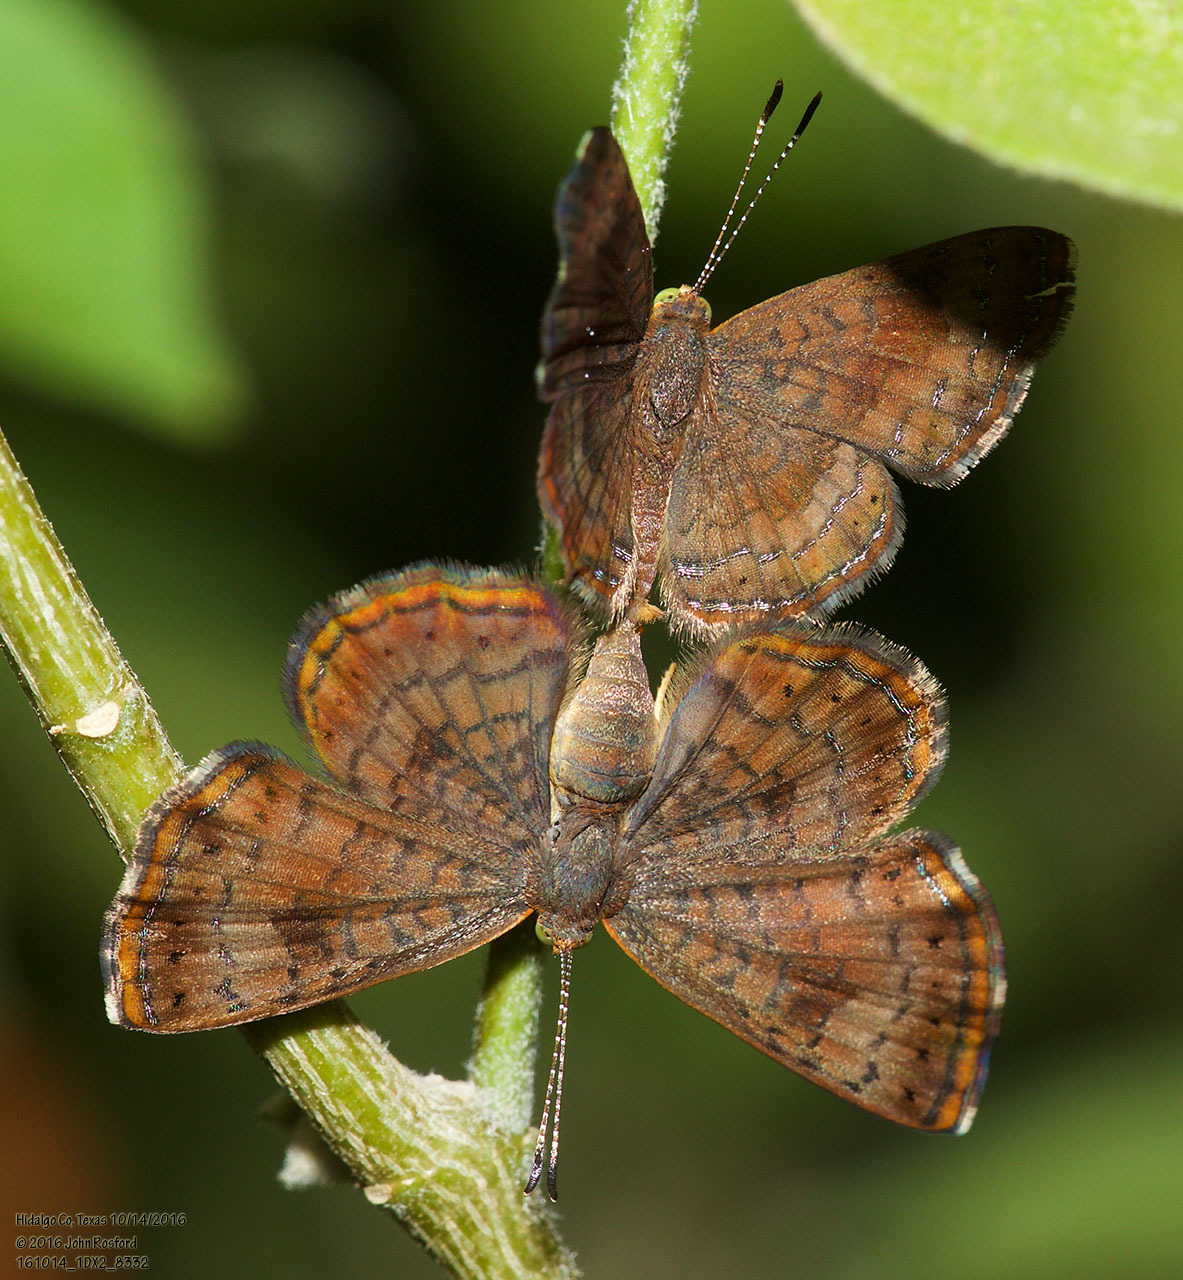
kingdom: Animalia
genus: Calephelis
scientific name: Calephelis nemesis
